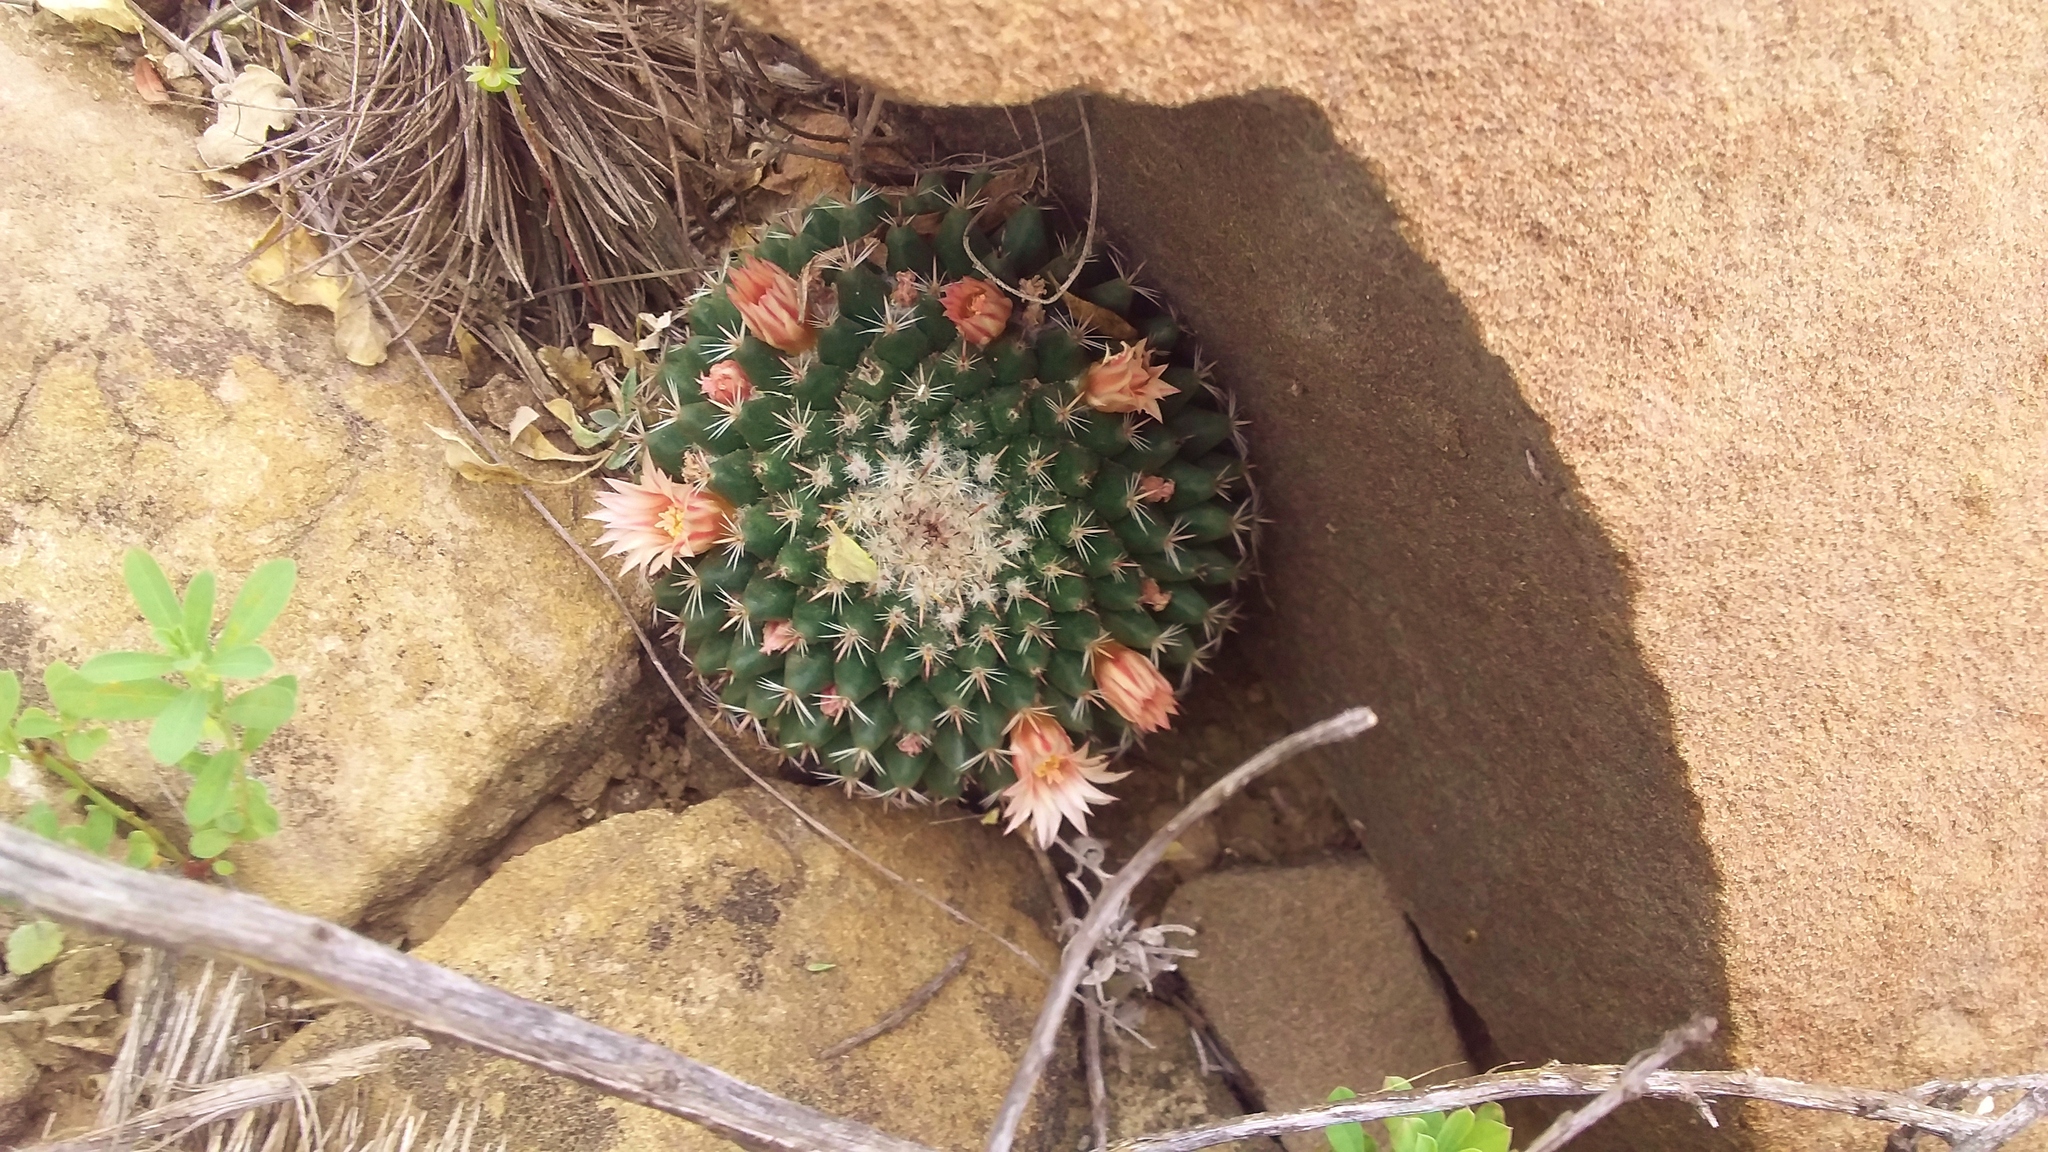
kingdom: Plantae
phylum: Tracheophyta
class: Magnoliopsida
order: Caryophyllales
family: Cactaceae
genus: Mammillaria
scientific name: Mammillaria formosa
